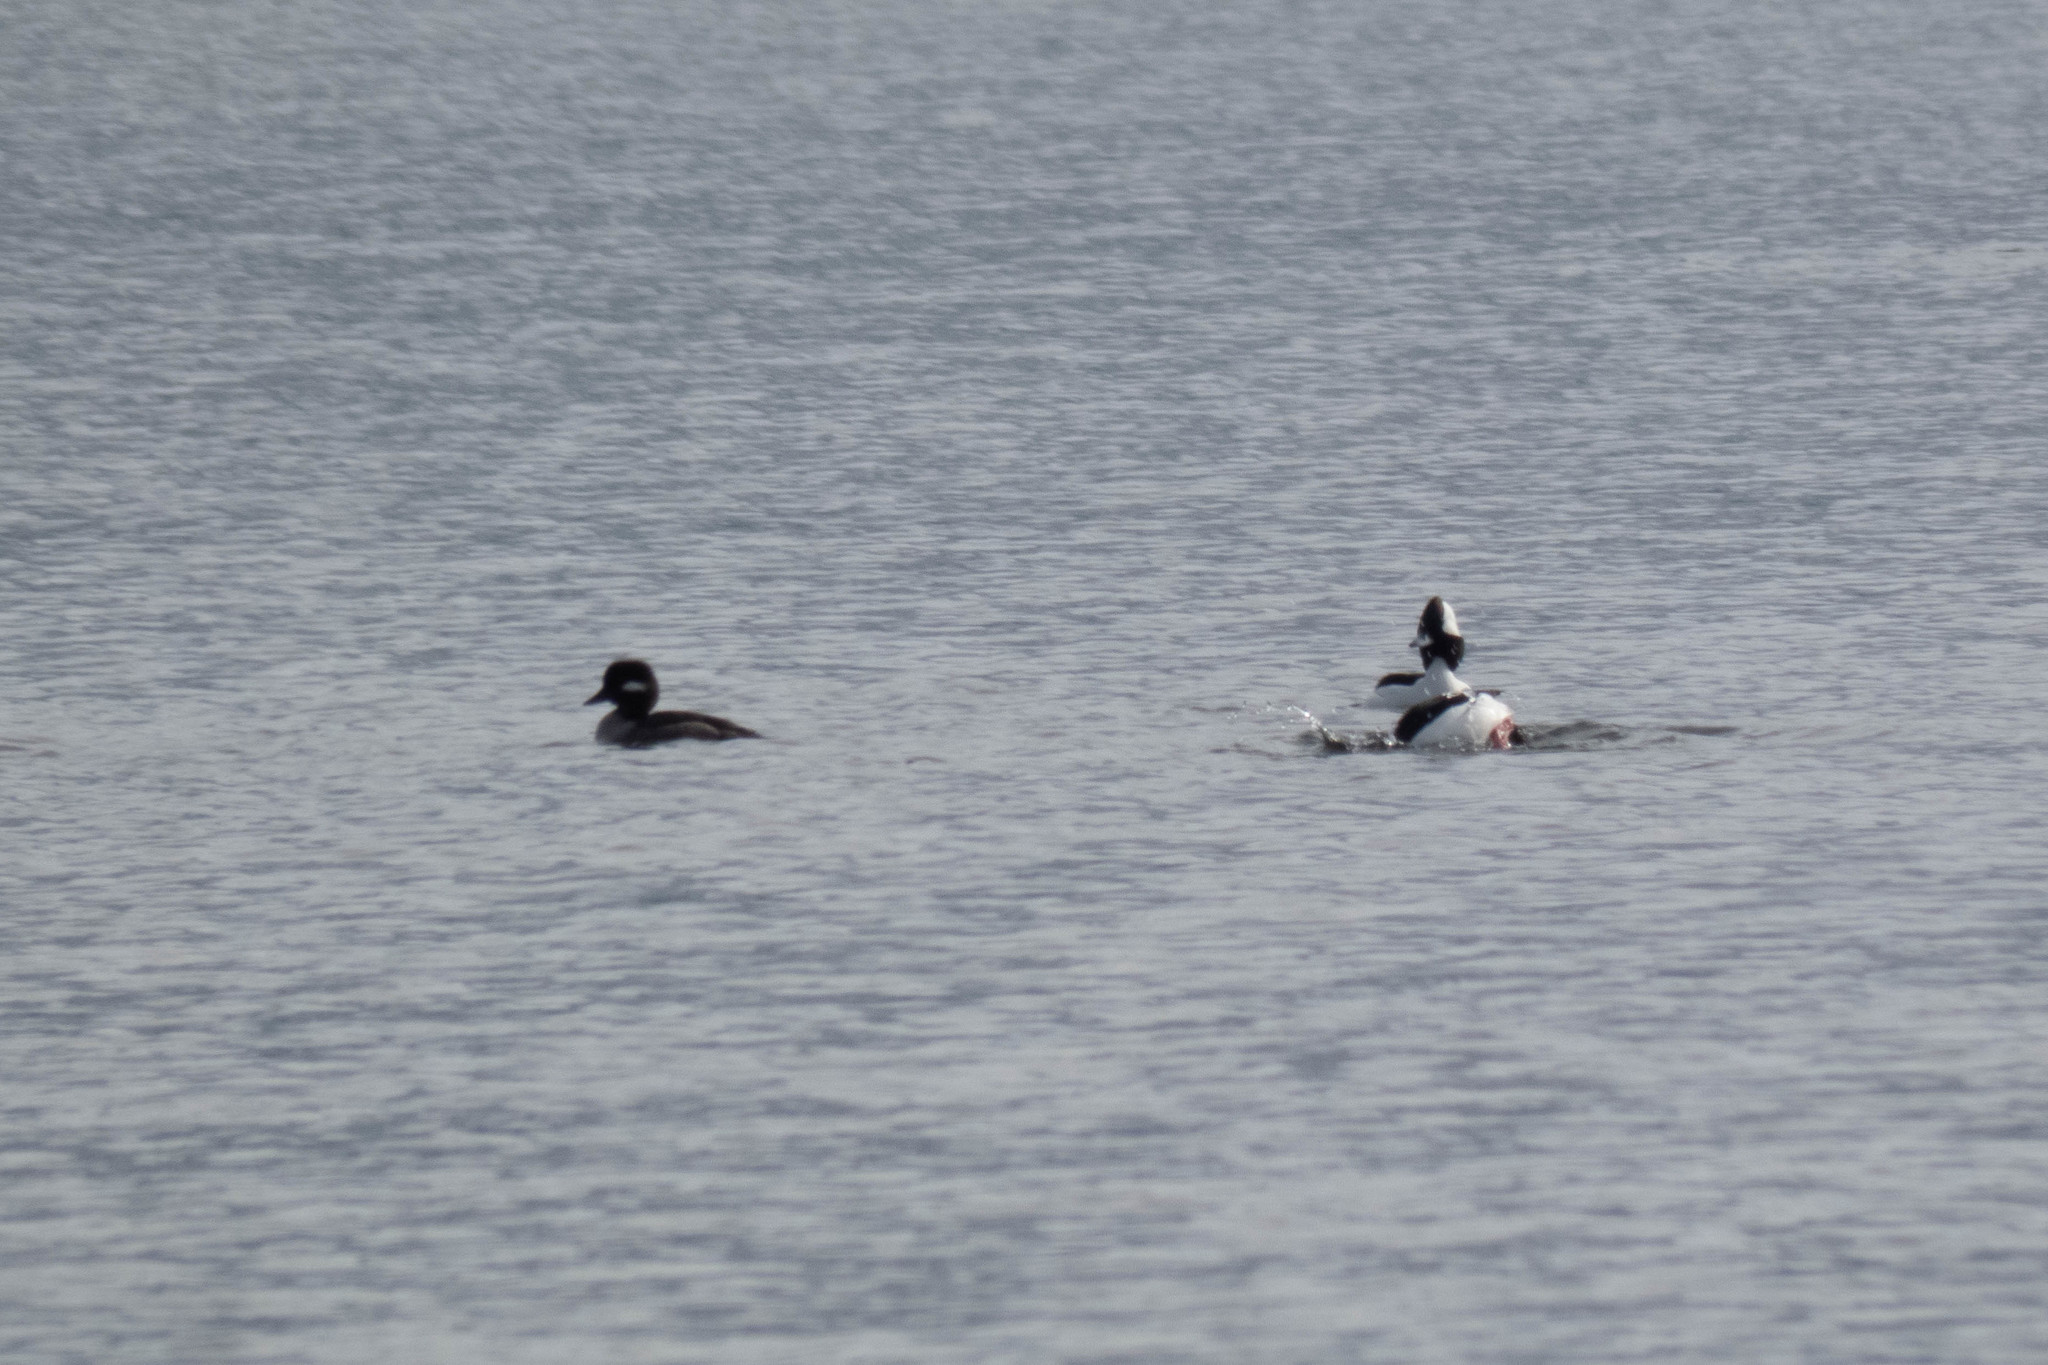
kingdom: Animalia
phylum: Chordata
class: Aves
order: Anseriformes
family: Anatidae
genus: Bucephala
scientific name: Bucephala albeola
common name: Bufflehead
